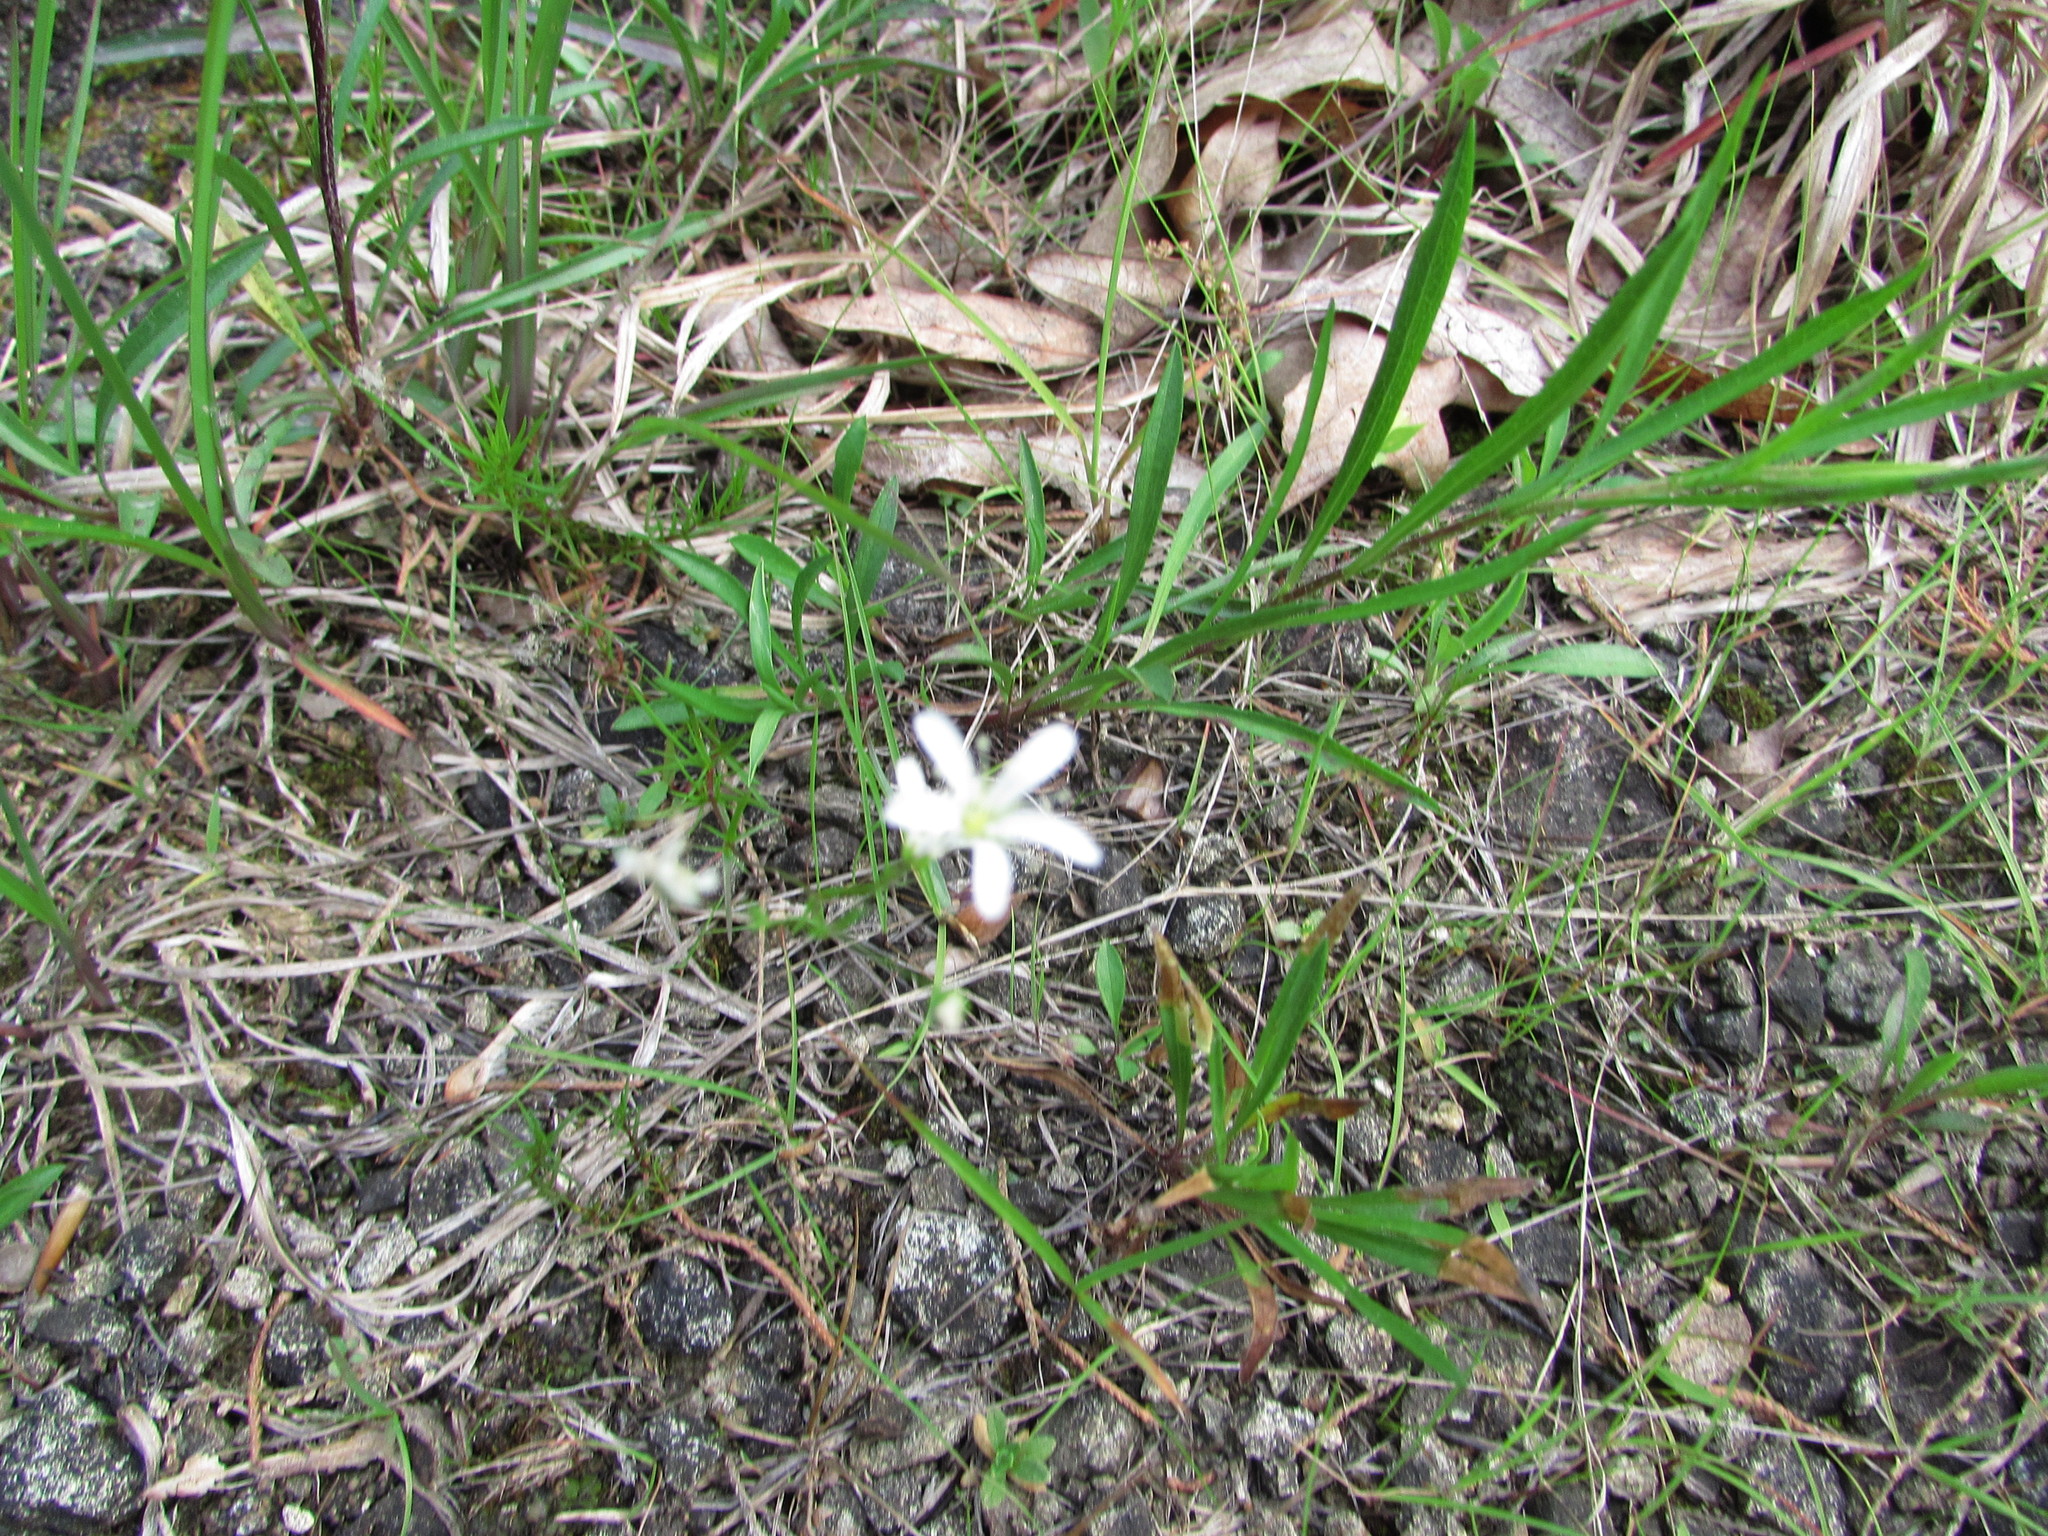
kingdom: Plantae
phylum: Tracheophyta
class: Magnoliopsida
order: Caryophyllales
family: Caryophyllaceae
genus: Sabulina
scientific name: Sabulina michauxii
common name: Michaux's stitchwort
